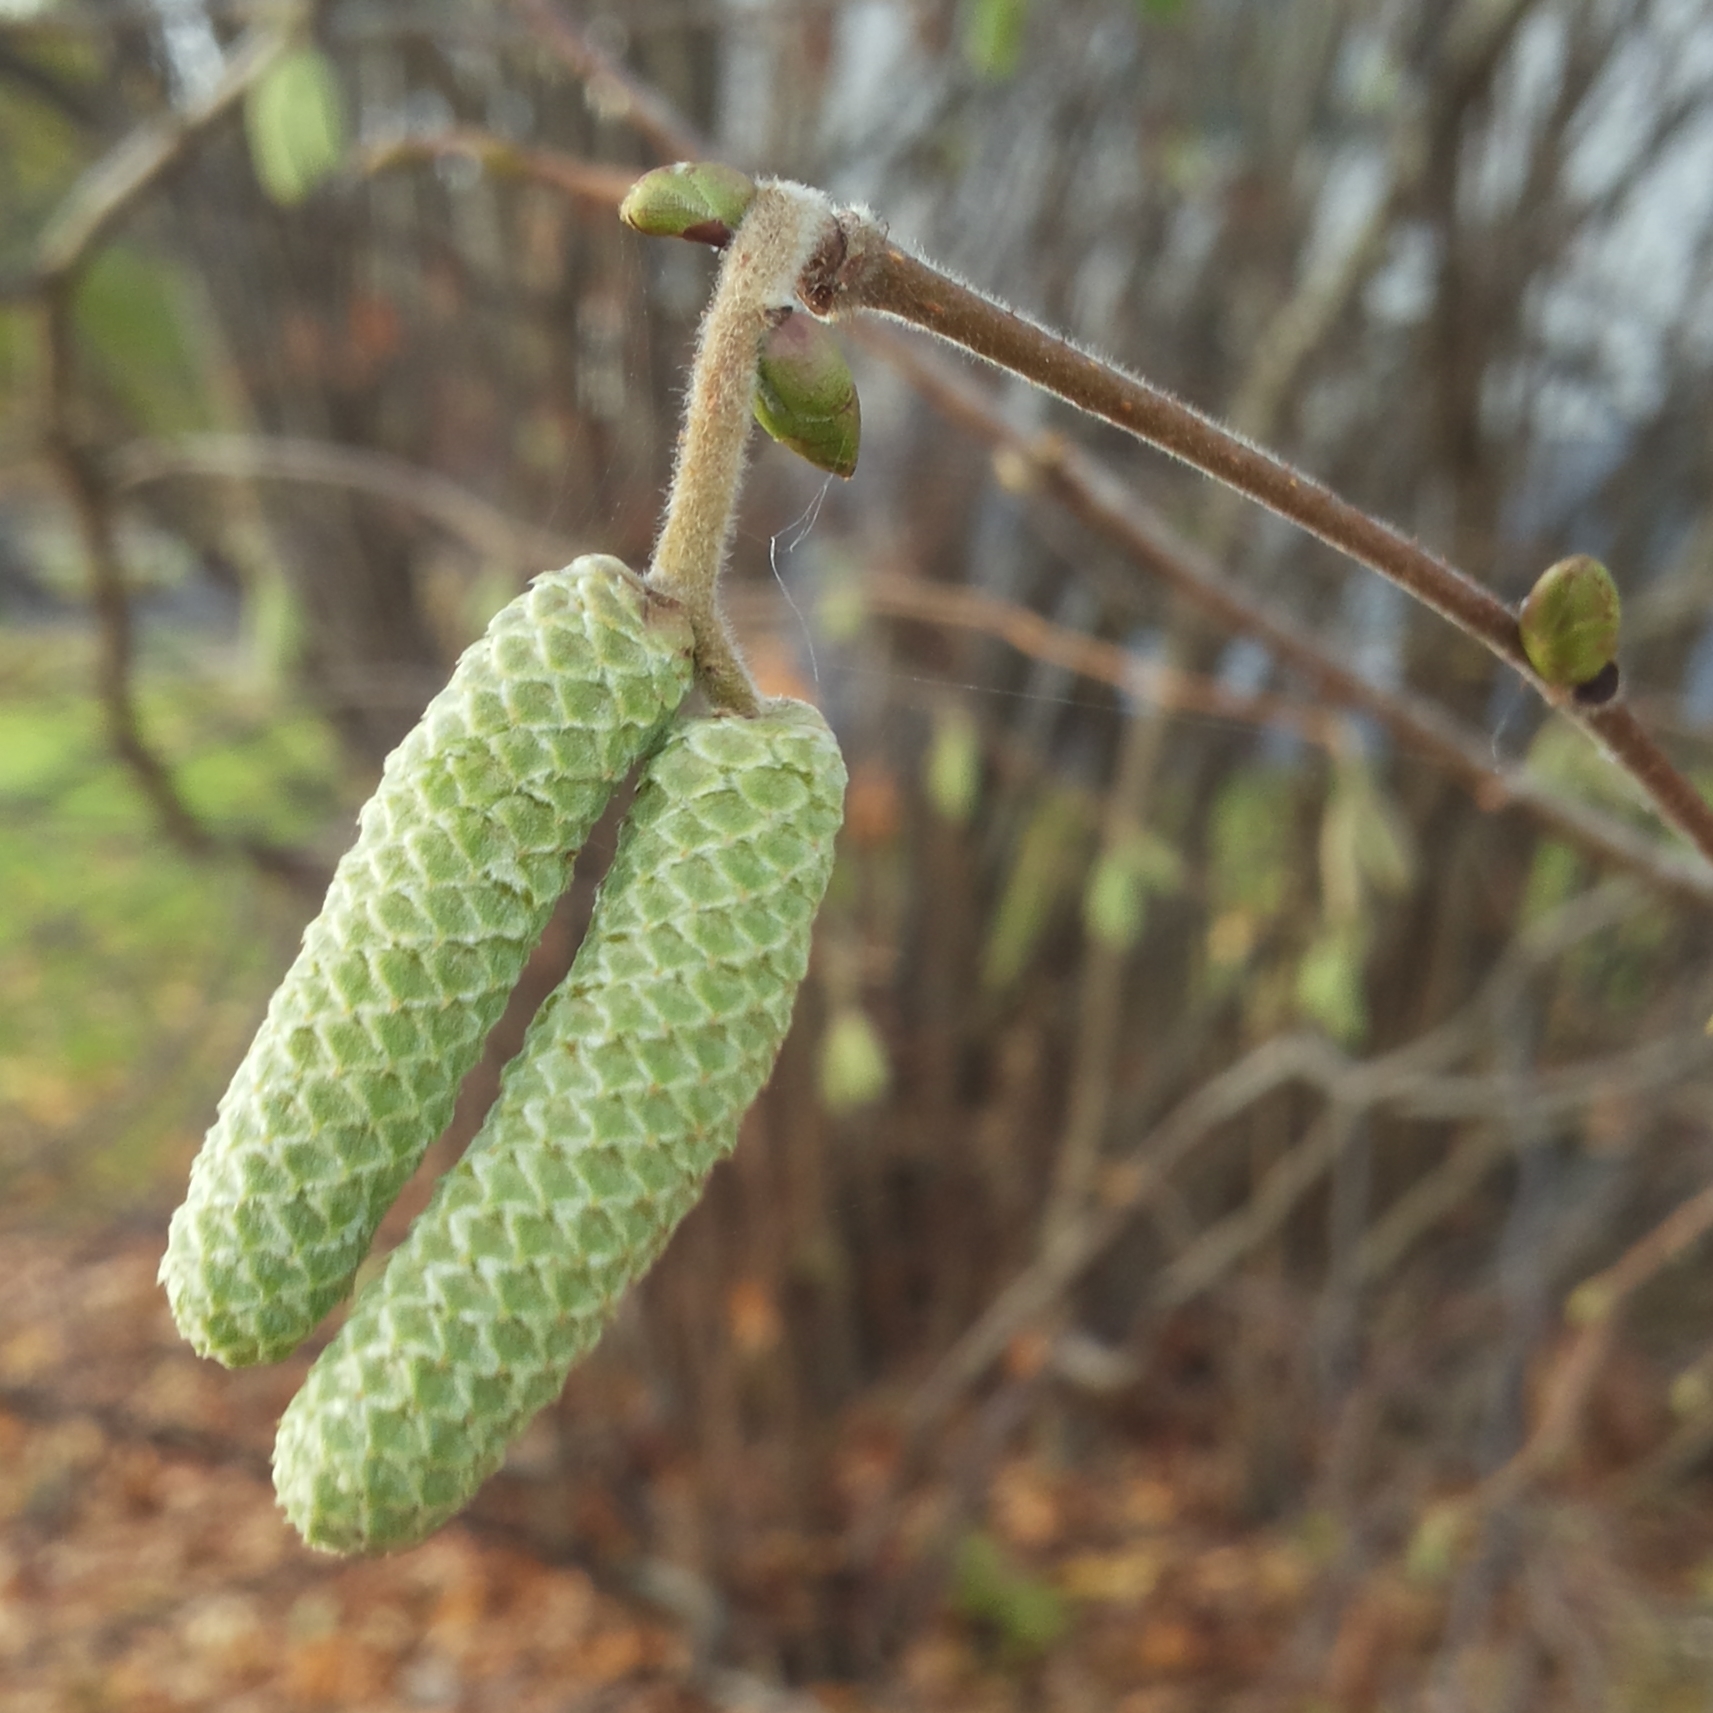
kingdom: Plantae
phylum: Tracheophyta
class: Magnoliopsida
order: Fagales
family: Betulaceae
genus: Corylus
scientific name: Corylus avellana
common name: European hazel
